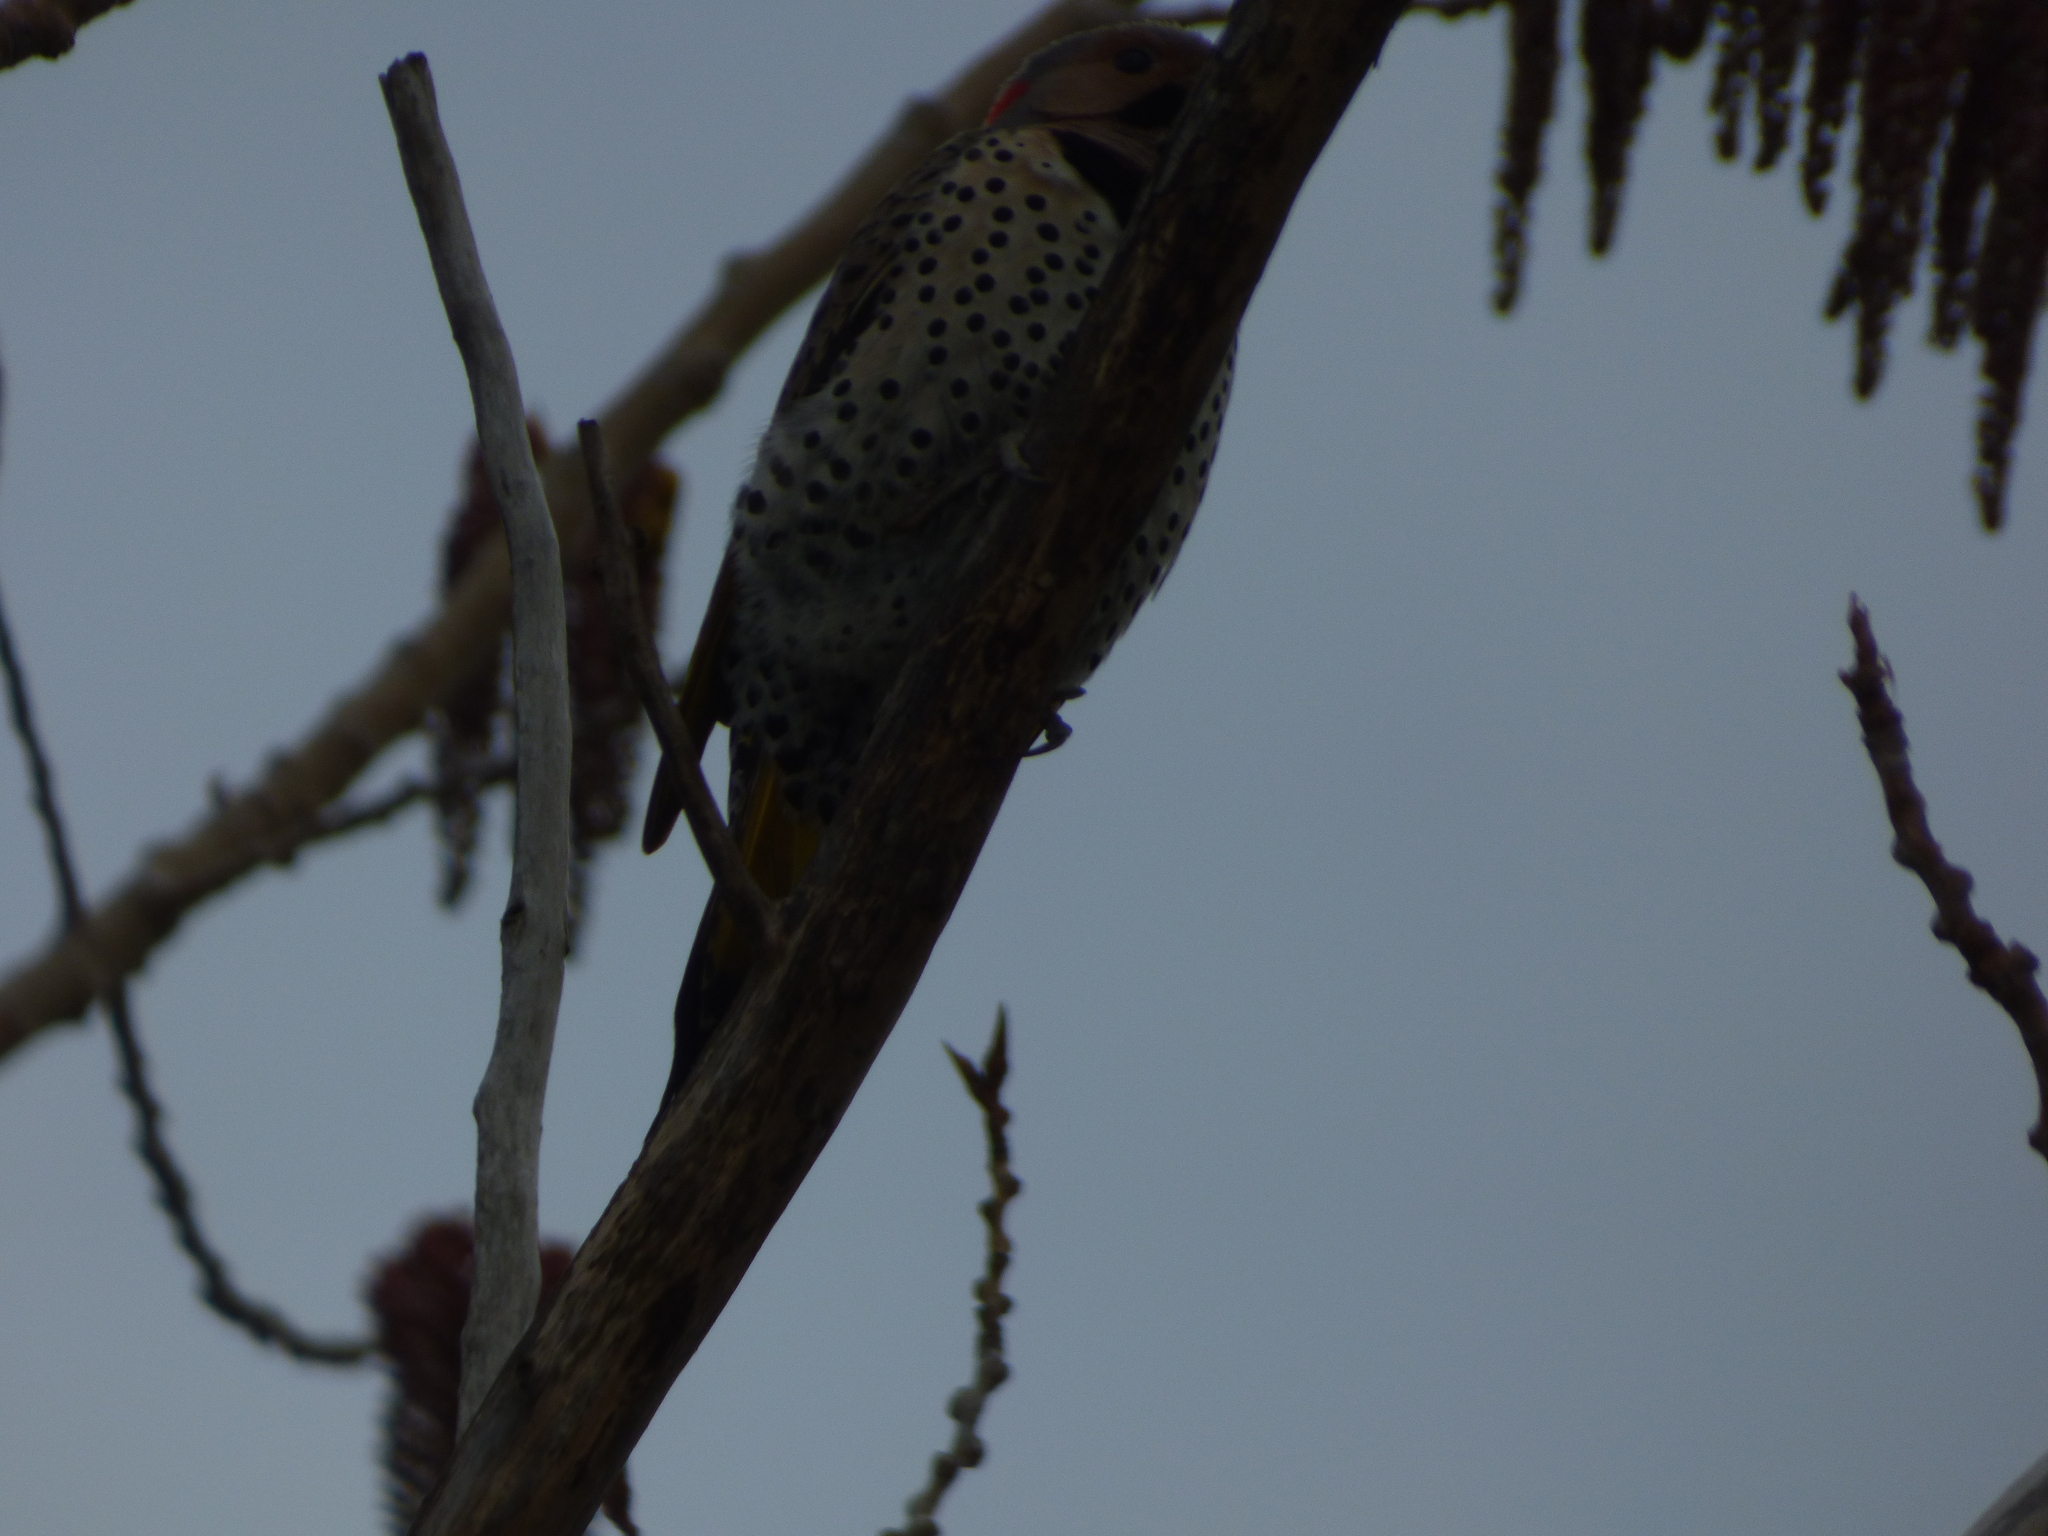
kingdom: Animalia
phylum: Chordata
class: Aves
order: Piciformes
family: Picidae
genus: Colaptes
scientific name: Colaptes auratus
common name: Northern flicker
